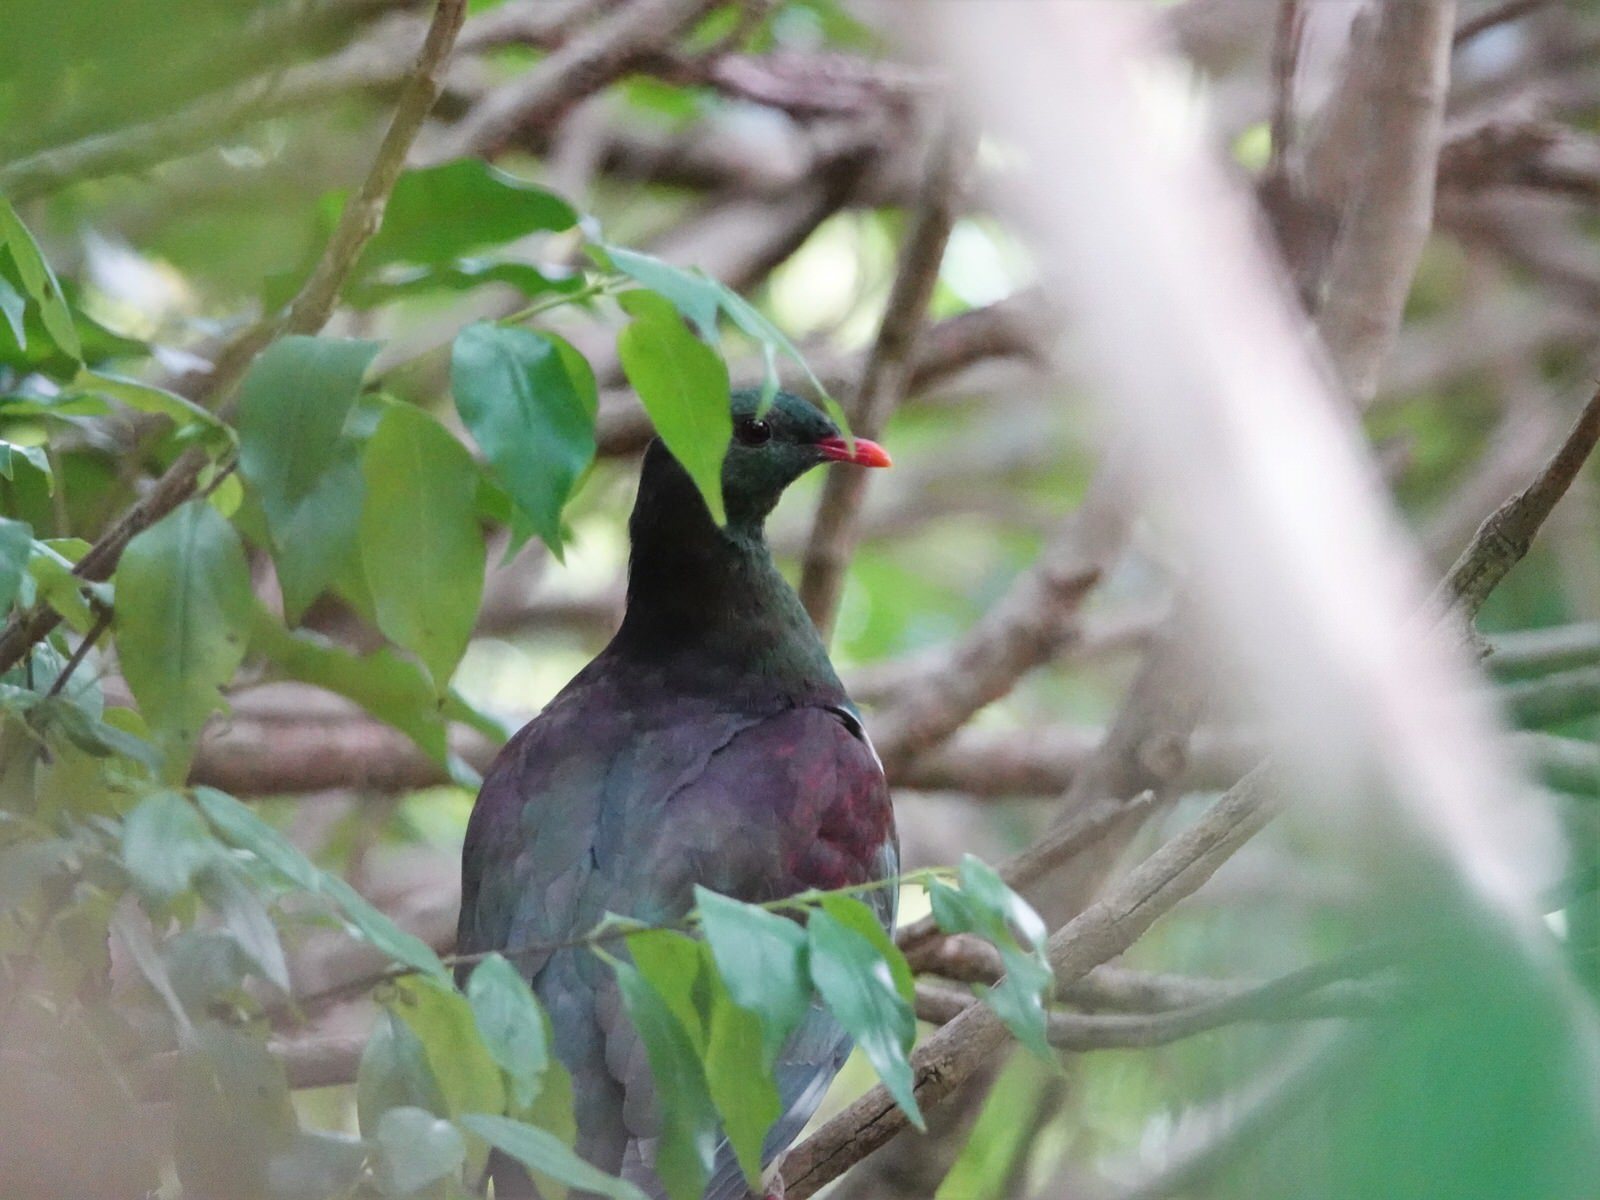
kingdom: Animalia
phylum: Chordata
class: Aves
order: Columbiformes
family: Columbidae
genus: Hemiphaga
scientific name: Hemiphaga novaeseelandiae
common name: New zealand pigeon
